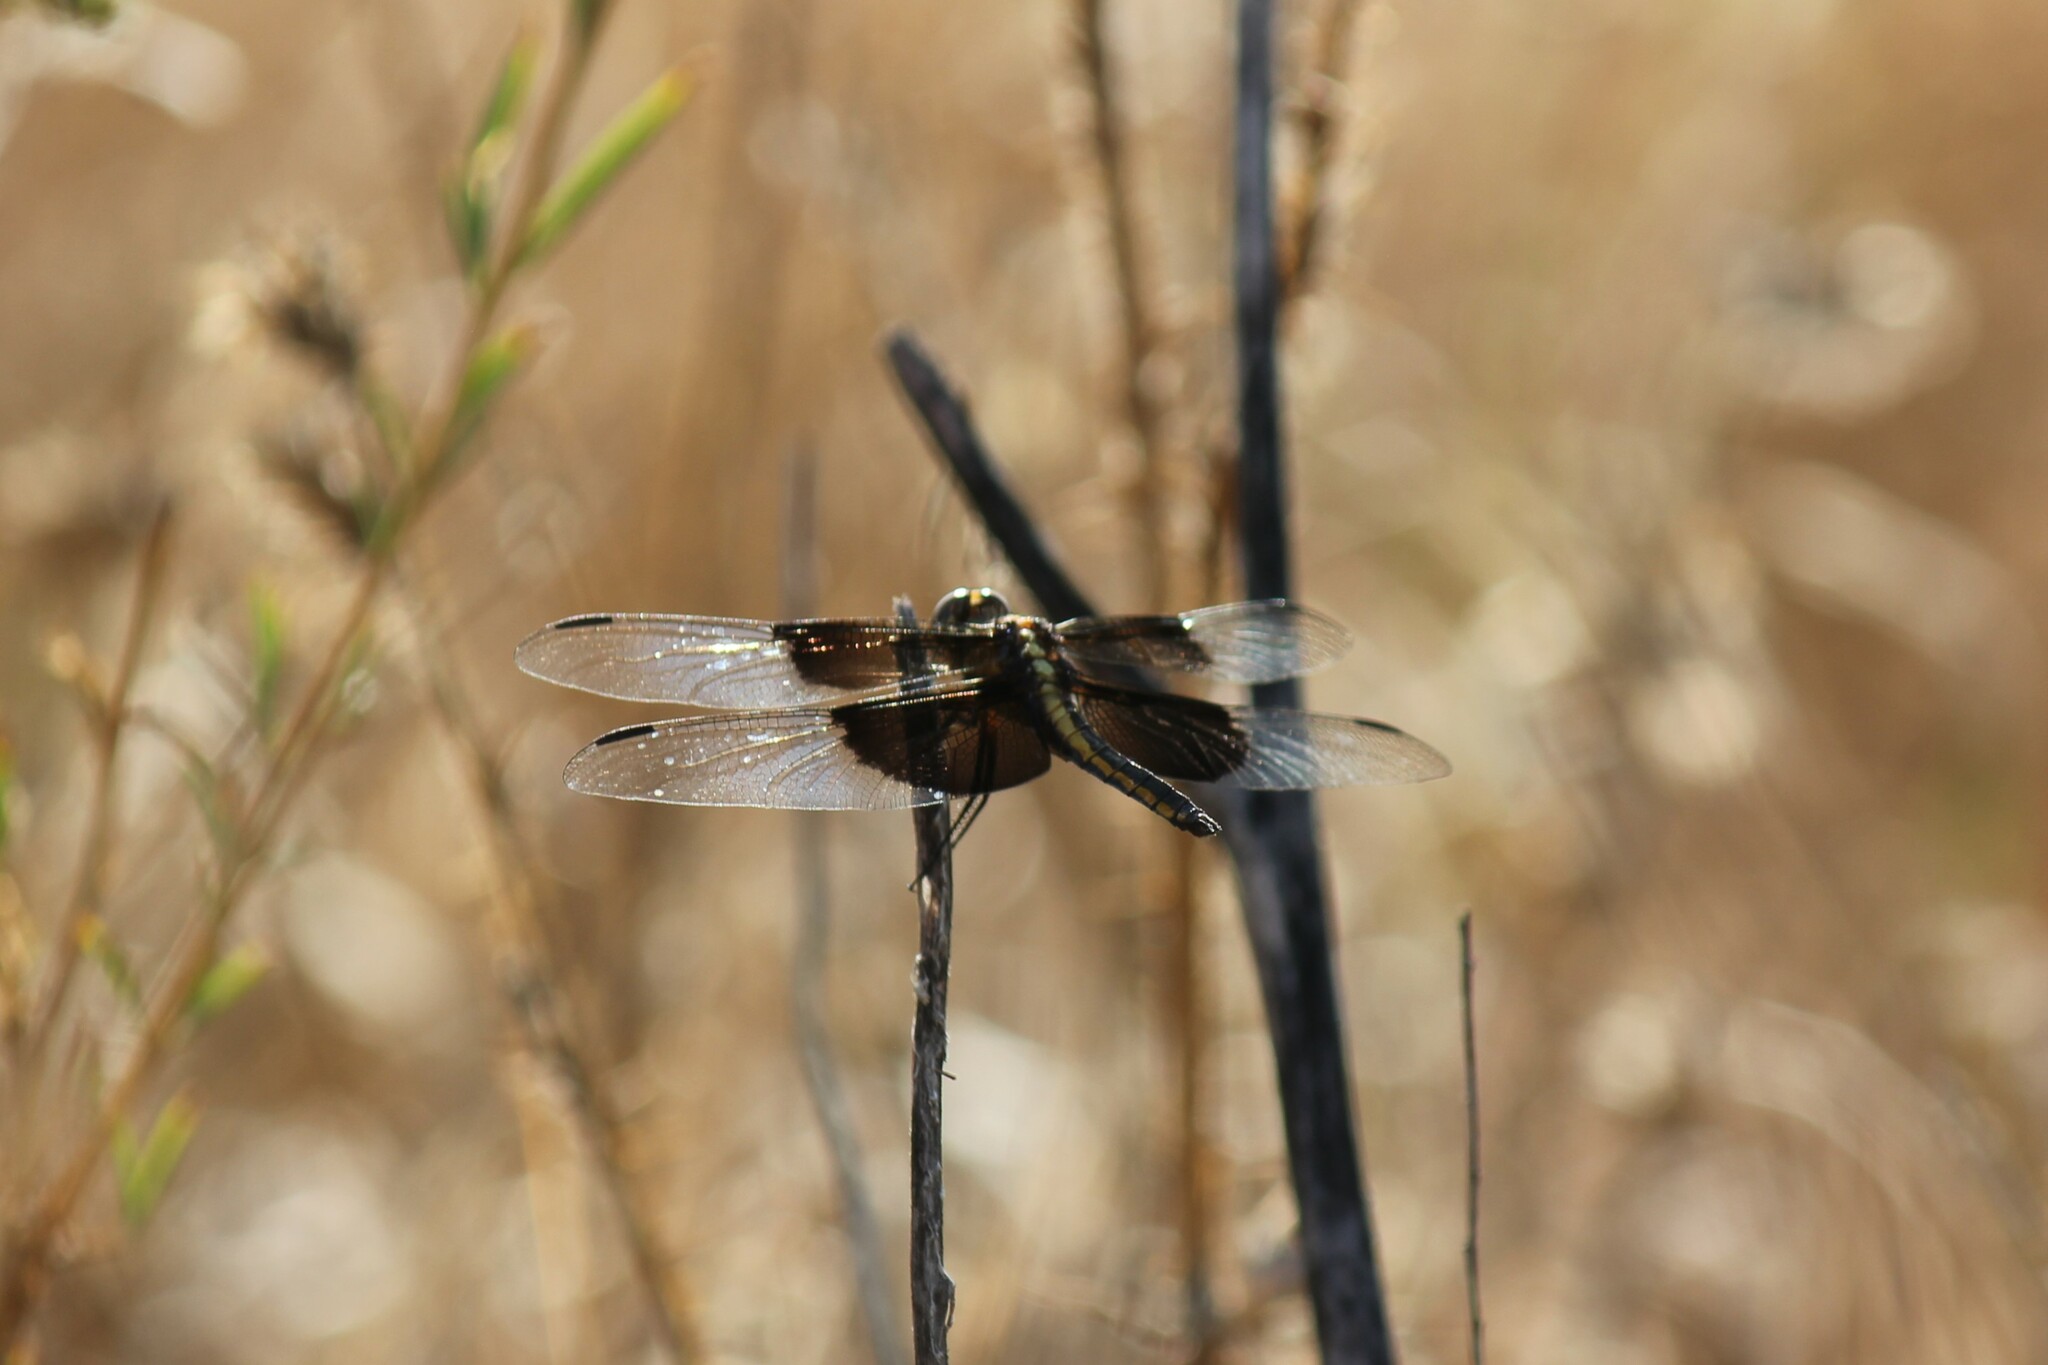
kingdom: Animalia
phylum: Arthropoda
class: Insecta
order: Odonata
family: Libellulidae
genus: Libellula
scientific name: Libellula luctuosa
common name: Widow skimmer
